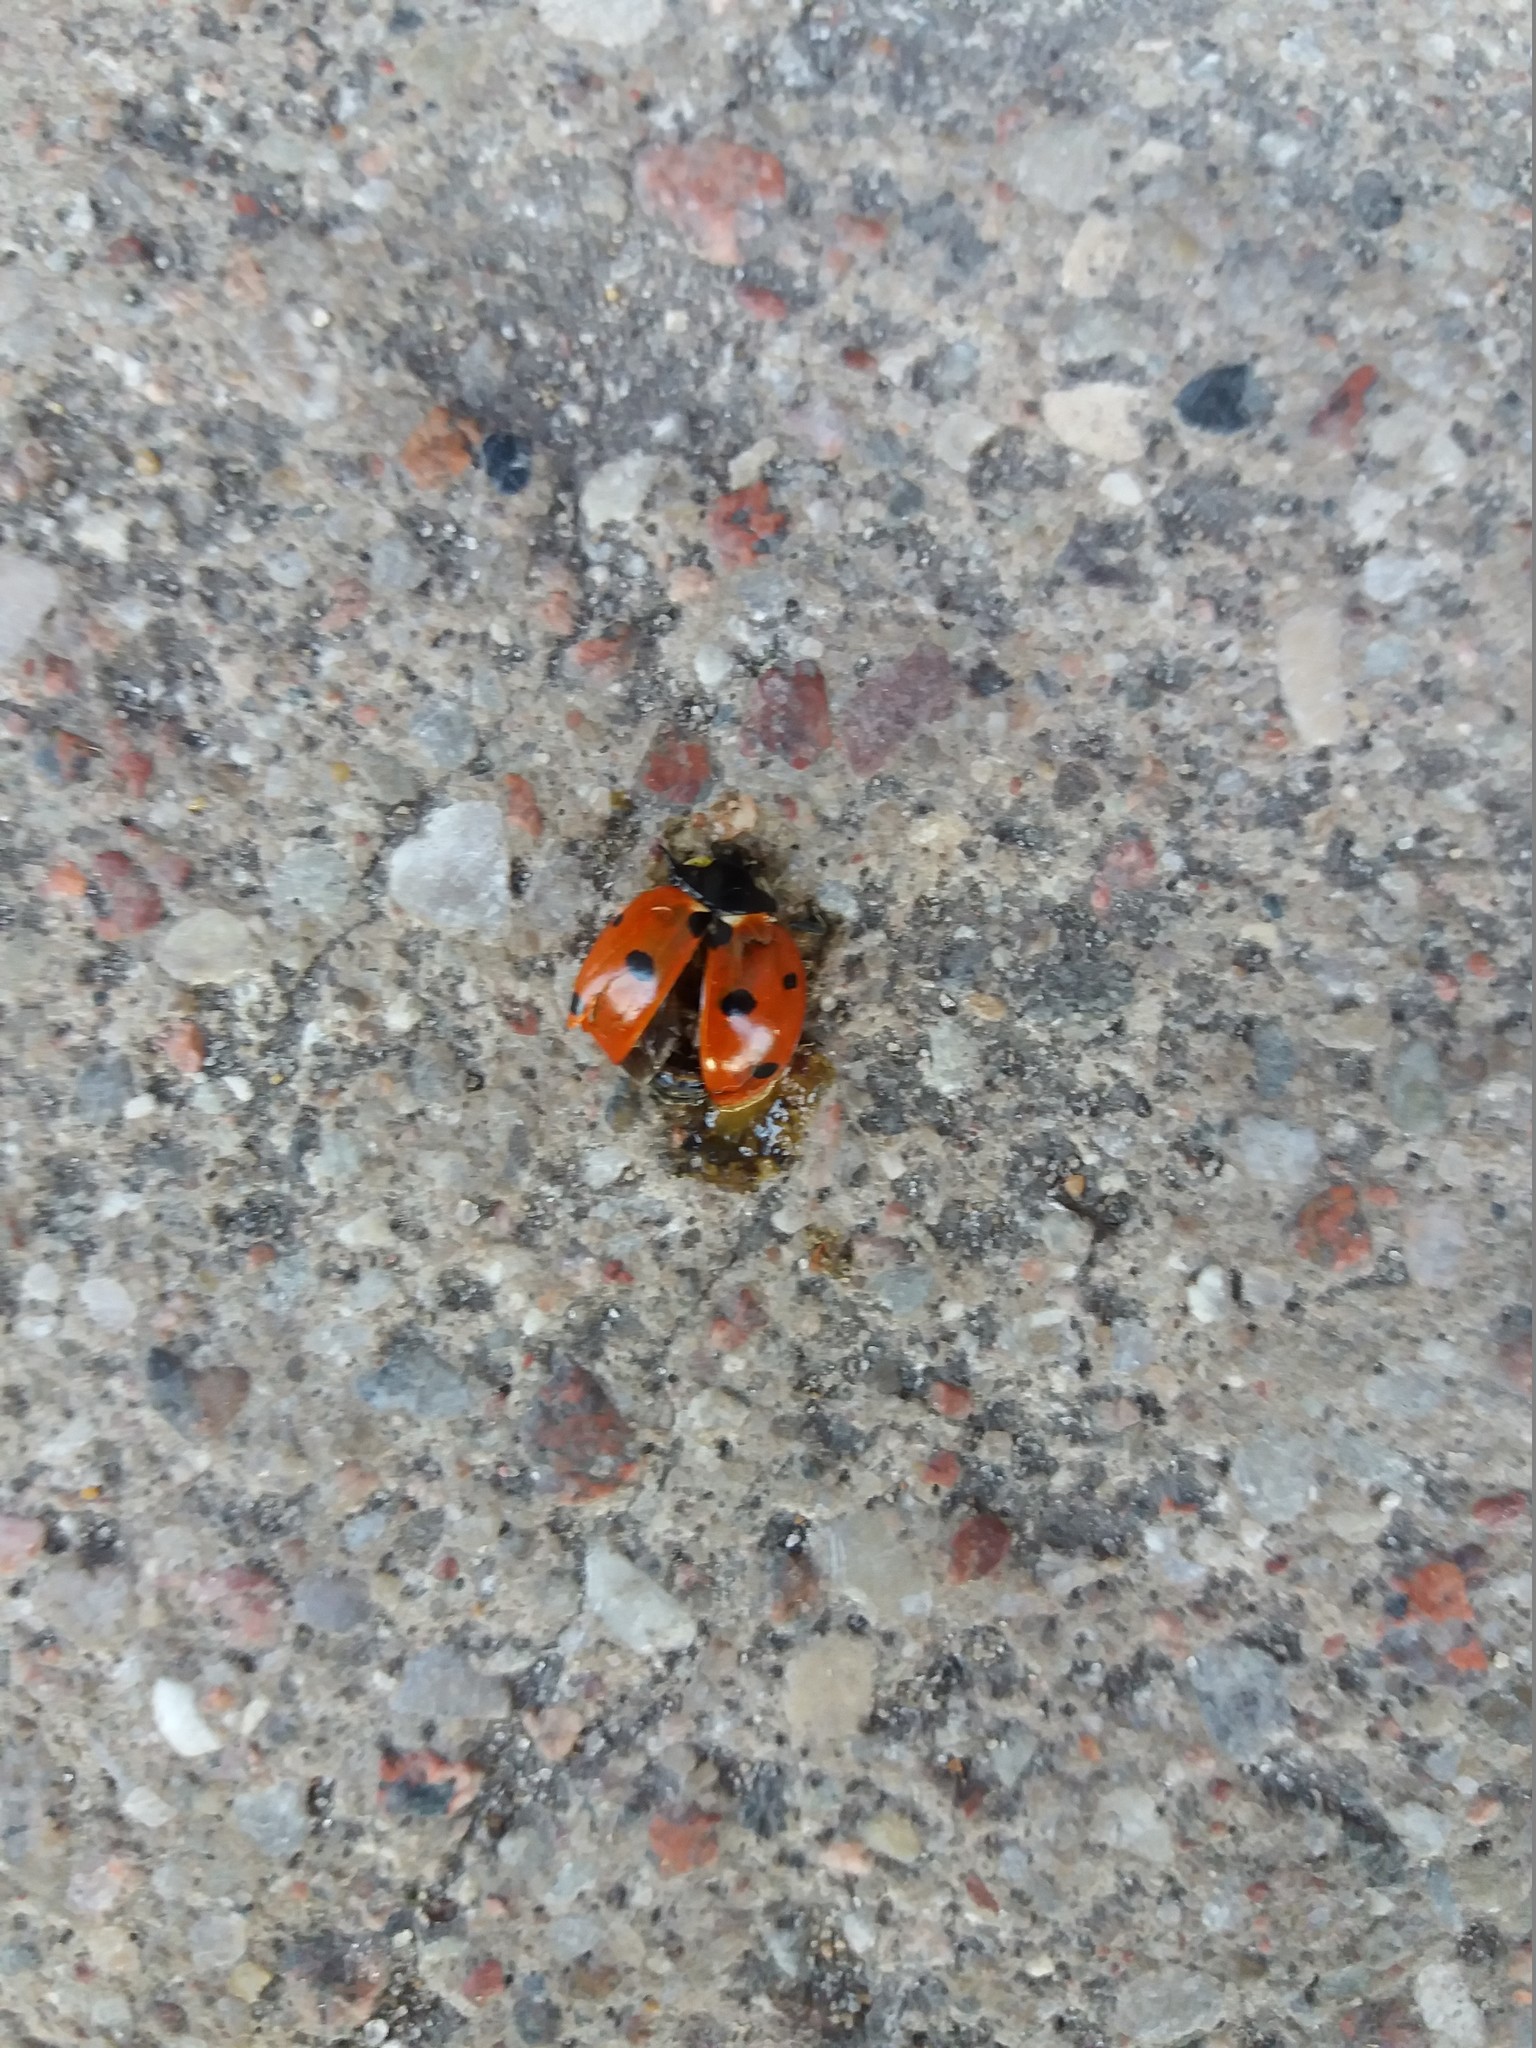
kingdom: Animalia
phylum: Arthropoda
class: Insecta
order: Coleoptera
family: Coccinellidae
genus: Coccinella
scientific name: Coccinella septempunctata
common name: Sevenspotted lady beetle
